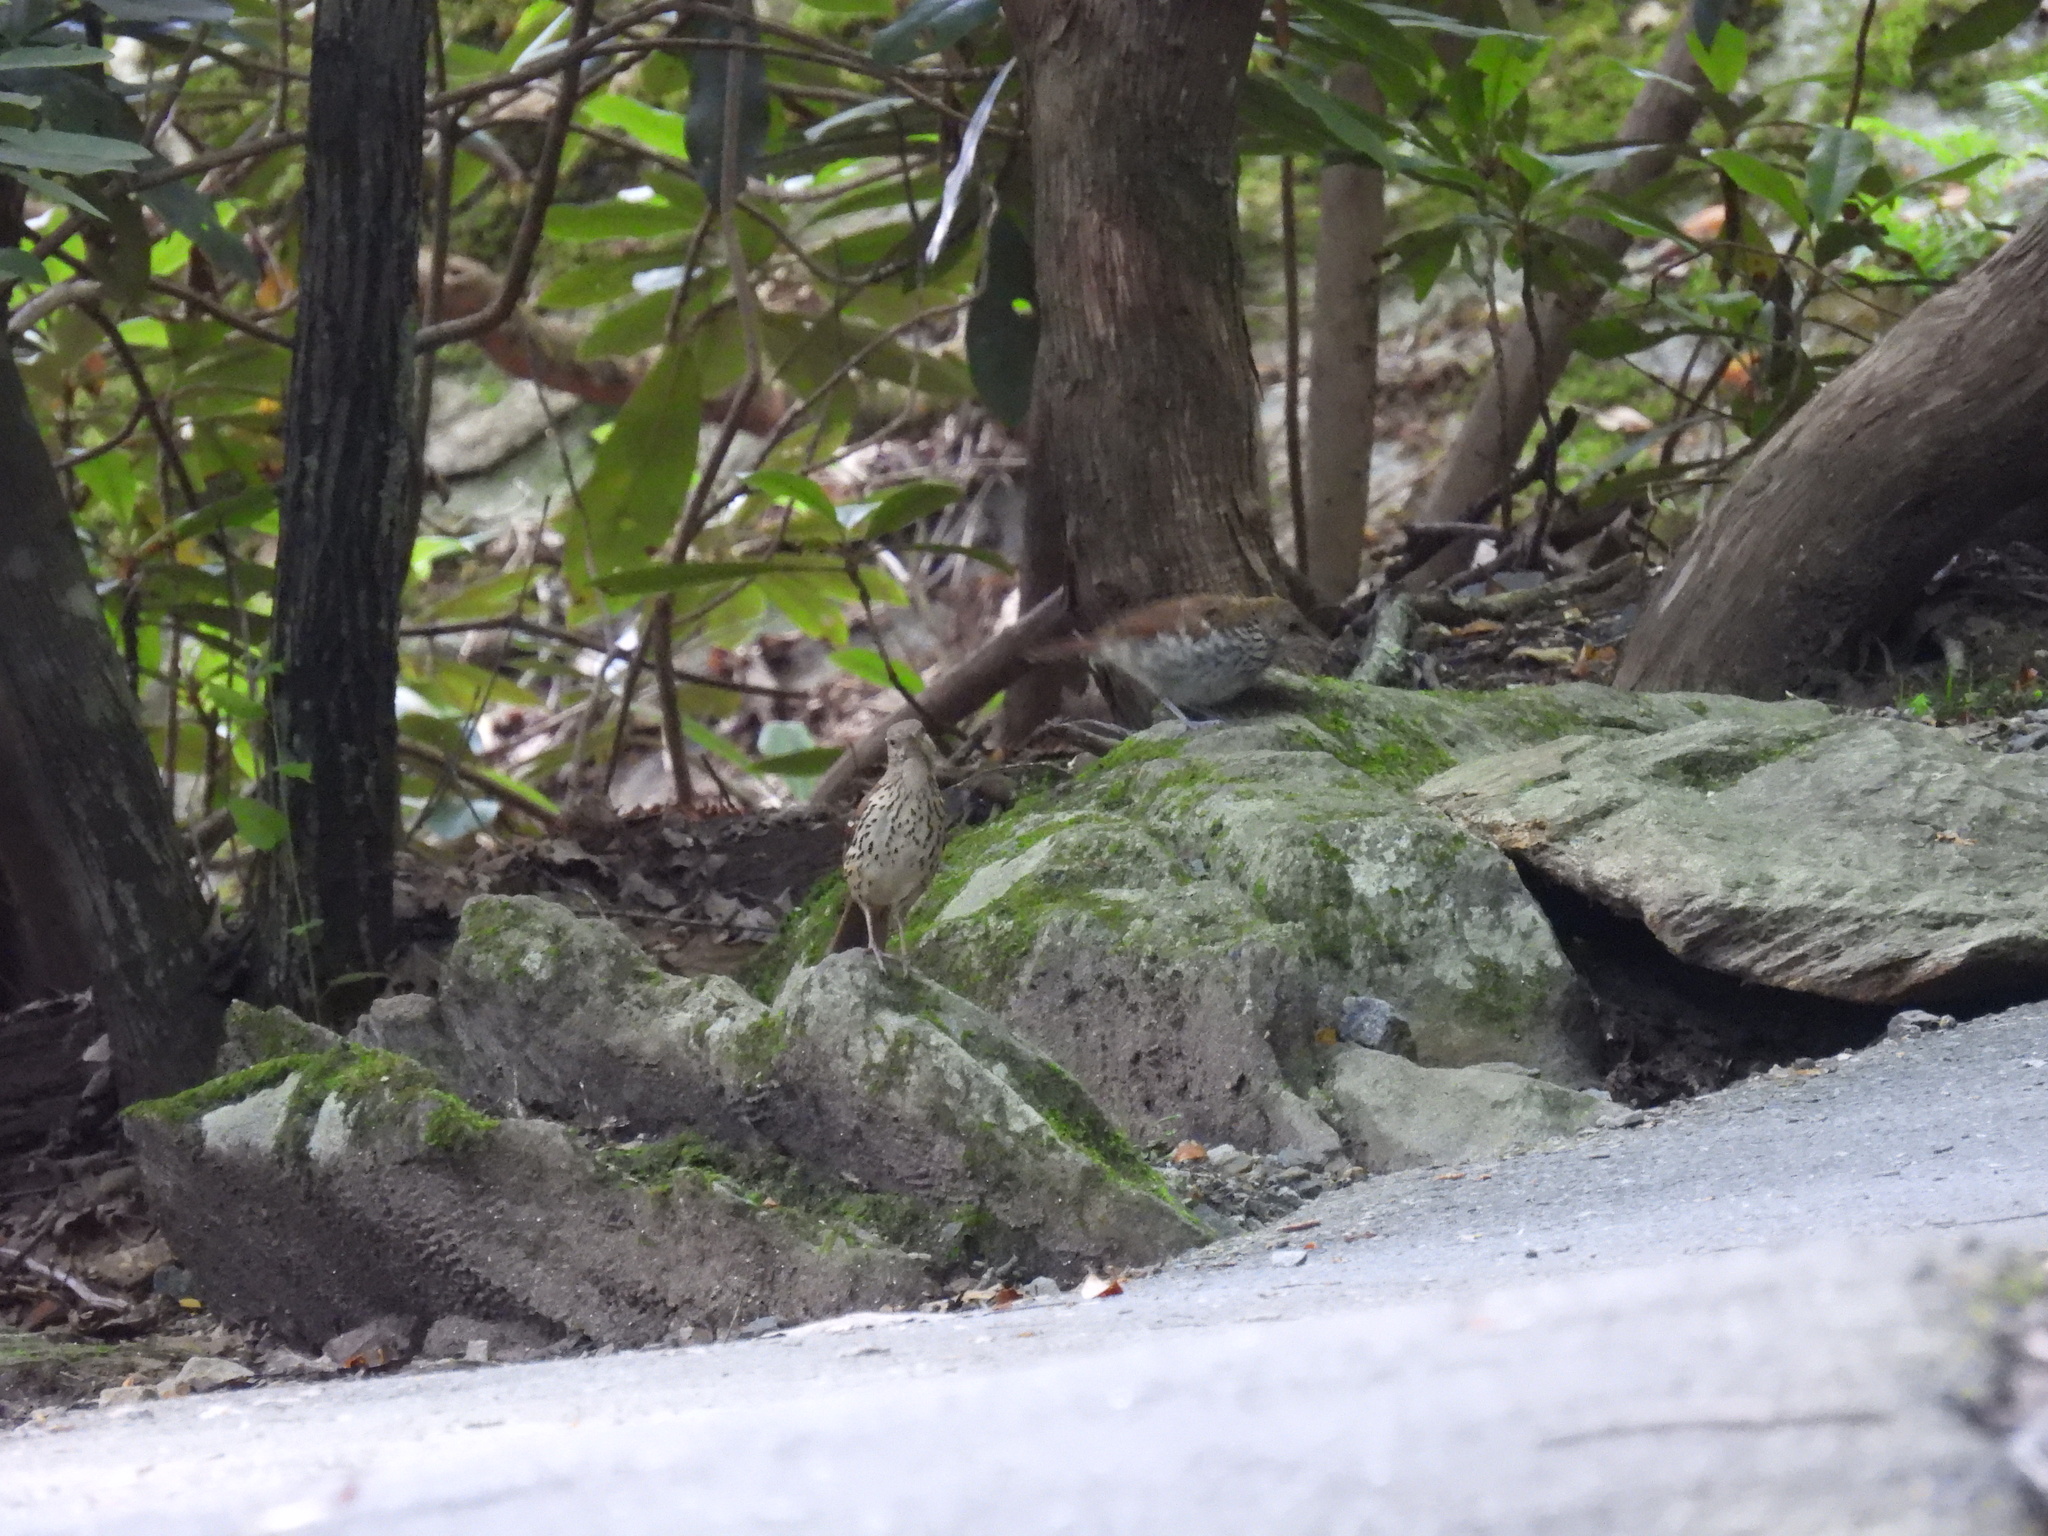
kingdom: Animalia
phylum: Chordata
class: Aves
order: Passeriformes
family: Mimidae
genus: Toxostoma
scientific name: Toxostoma rufum
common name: Brown thrasher
